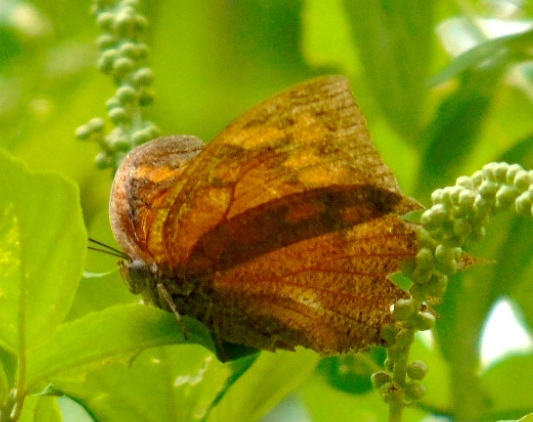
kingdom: Animalia
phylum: Arthropoda
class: Insecta
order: Lepidoptera
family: Nymphalidae
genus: Anaea
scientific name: Anaea
